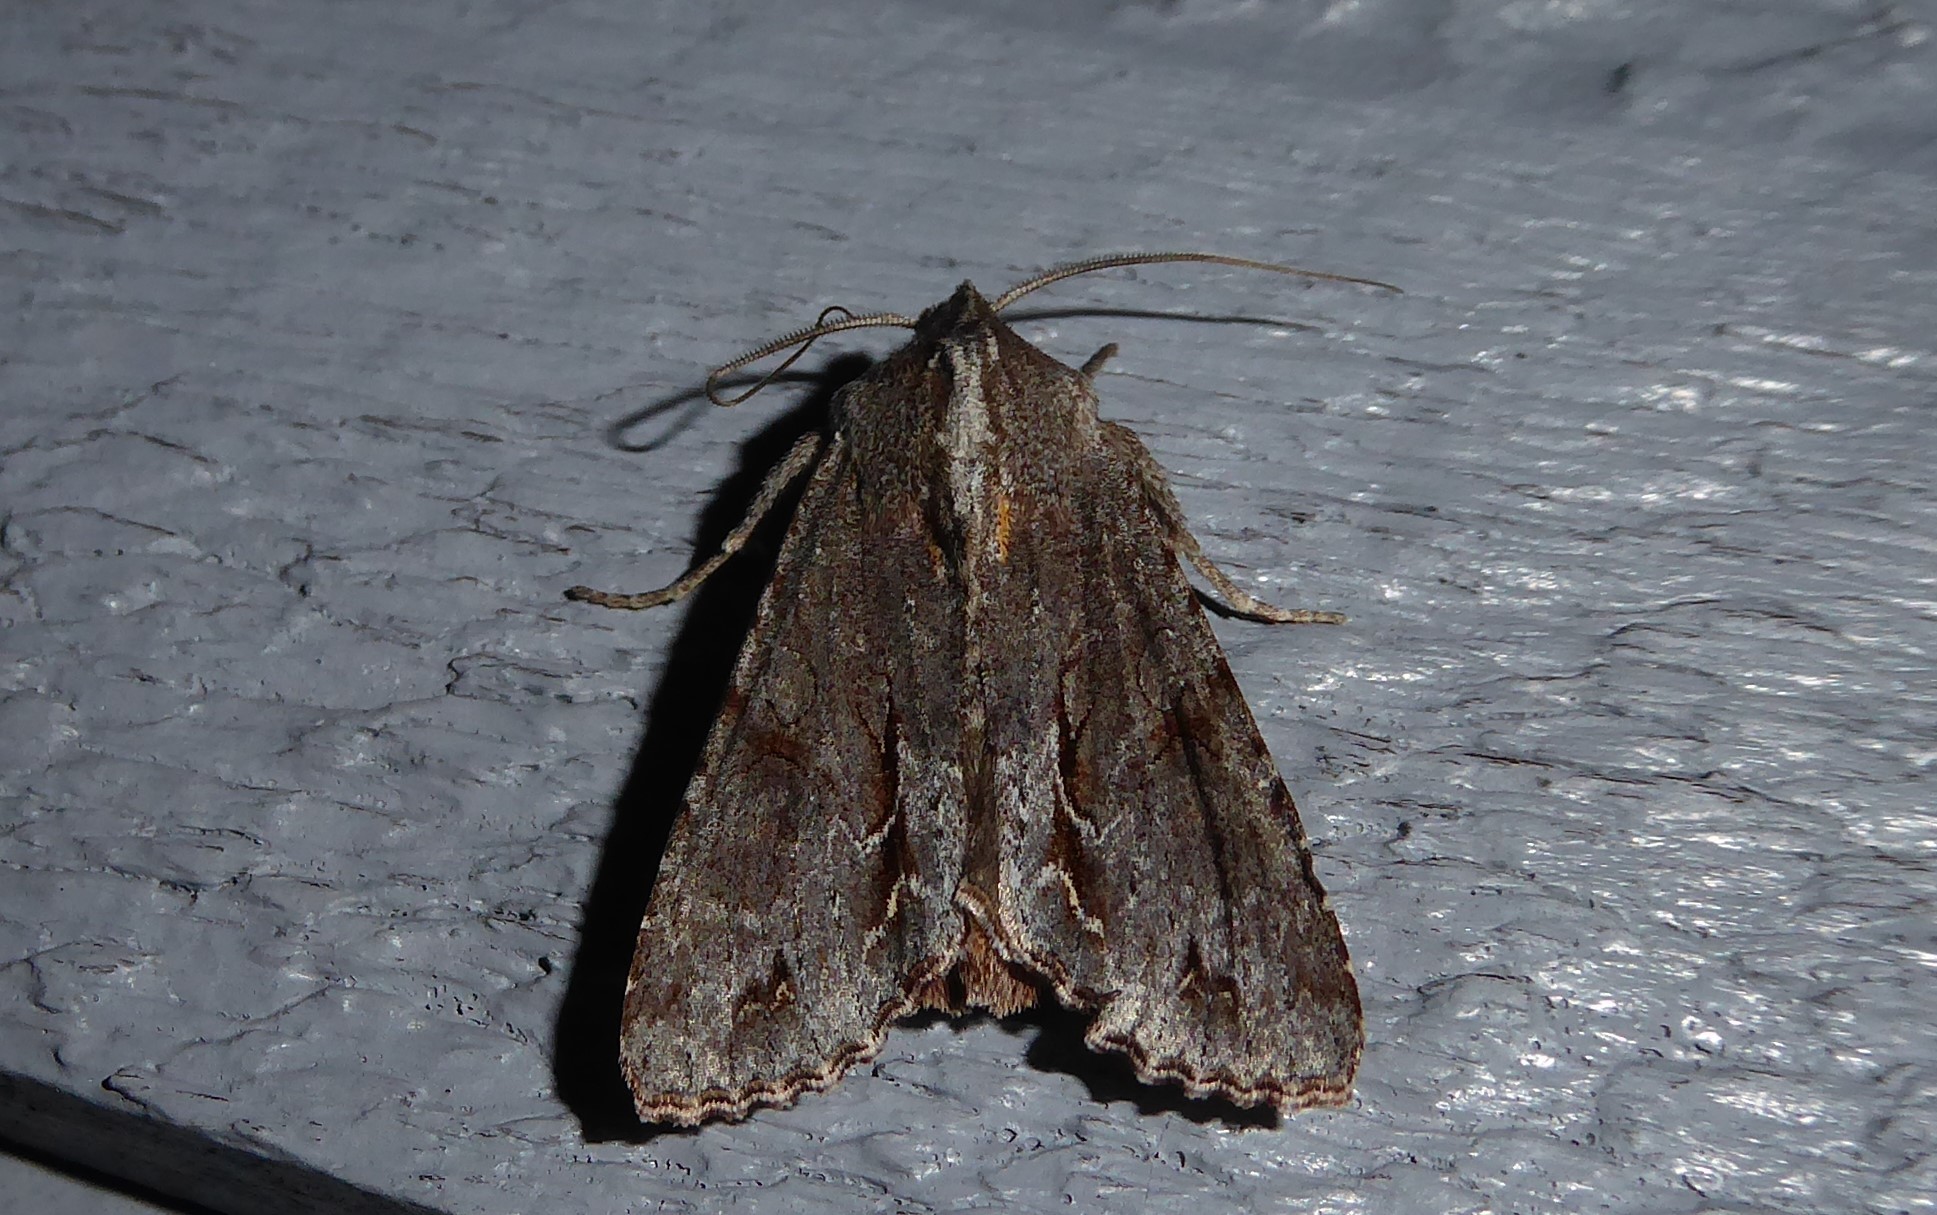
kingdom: Animalia
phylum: Arthropoda
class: Insecta
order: Lepidoptera
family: Noctuidae
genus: Ichneutica
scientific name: Ichneutica
